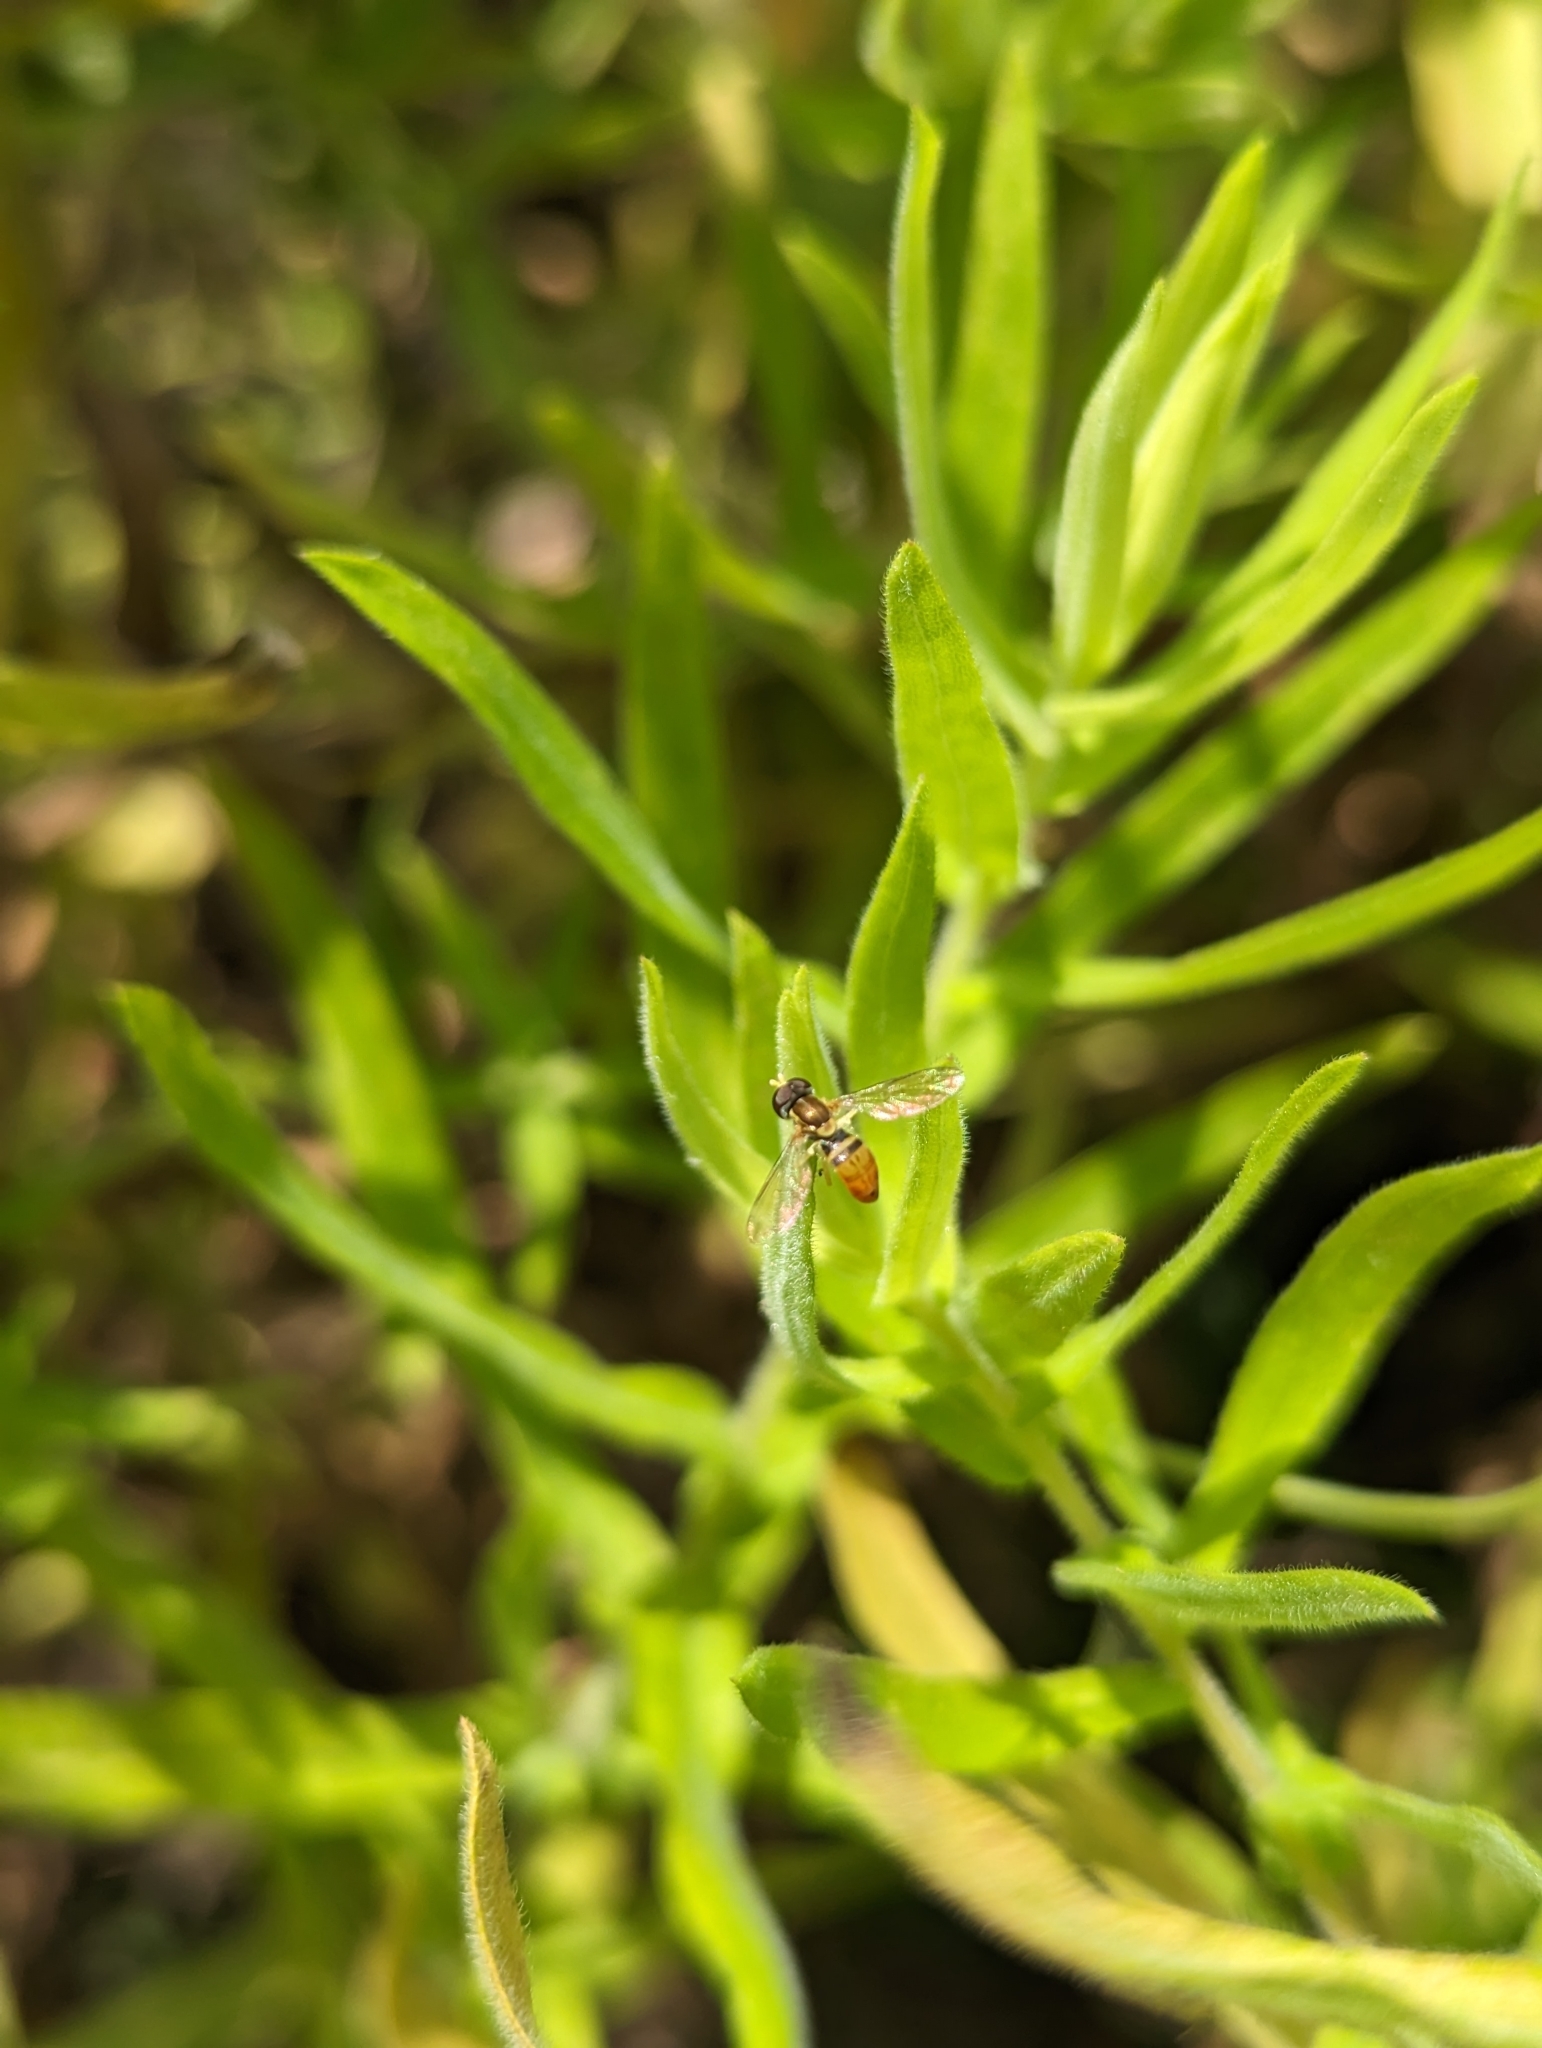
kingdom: Animalia
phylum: Arthropoda
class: Insecta
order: Diptera
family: Syrphidae
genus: Toxomerus
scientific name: Toxomerus marginatus
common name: Syrphid fly
